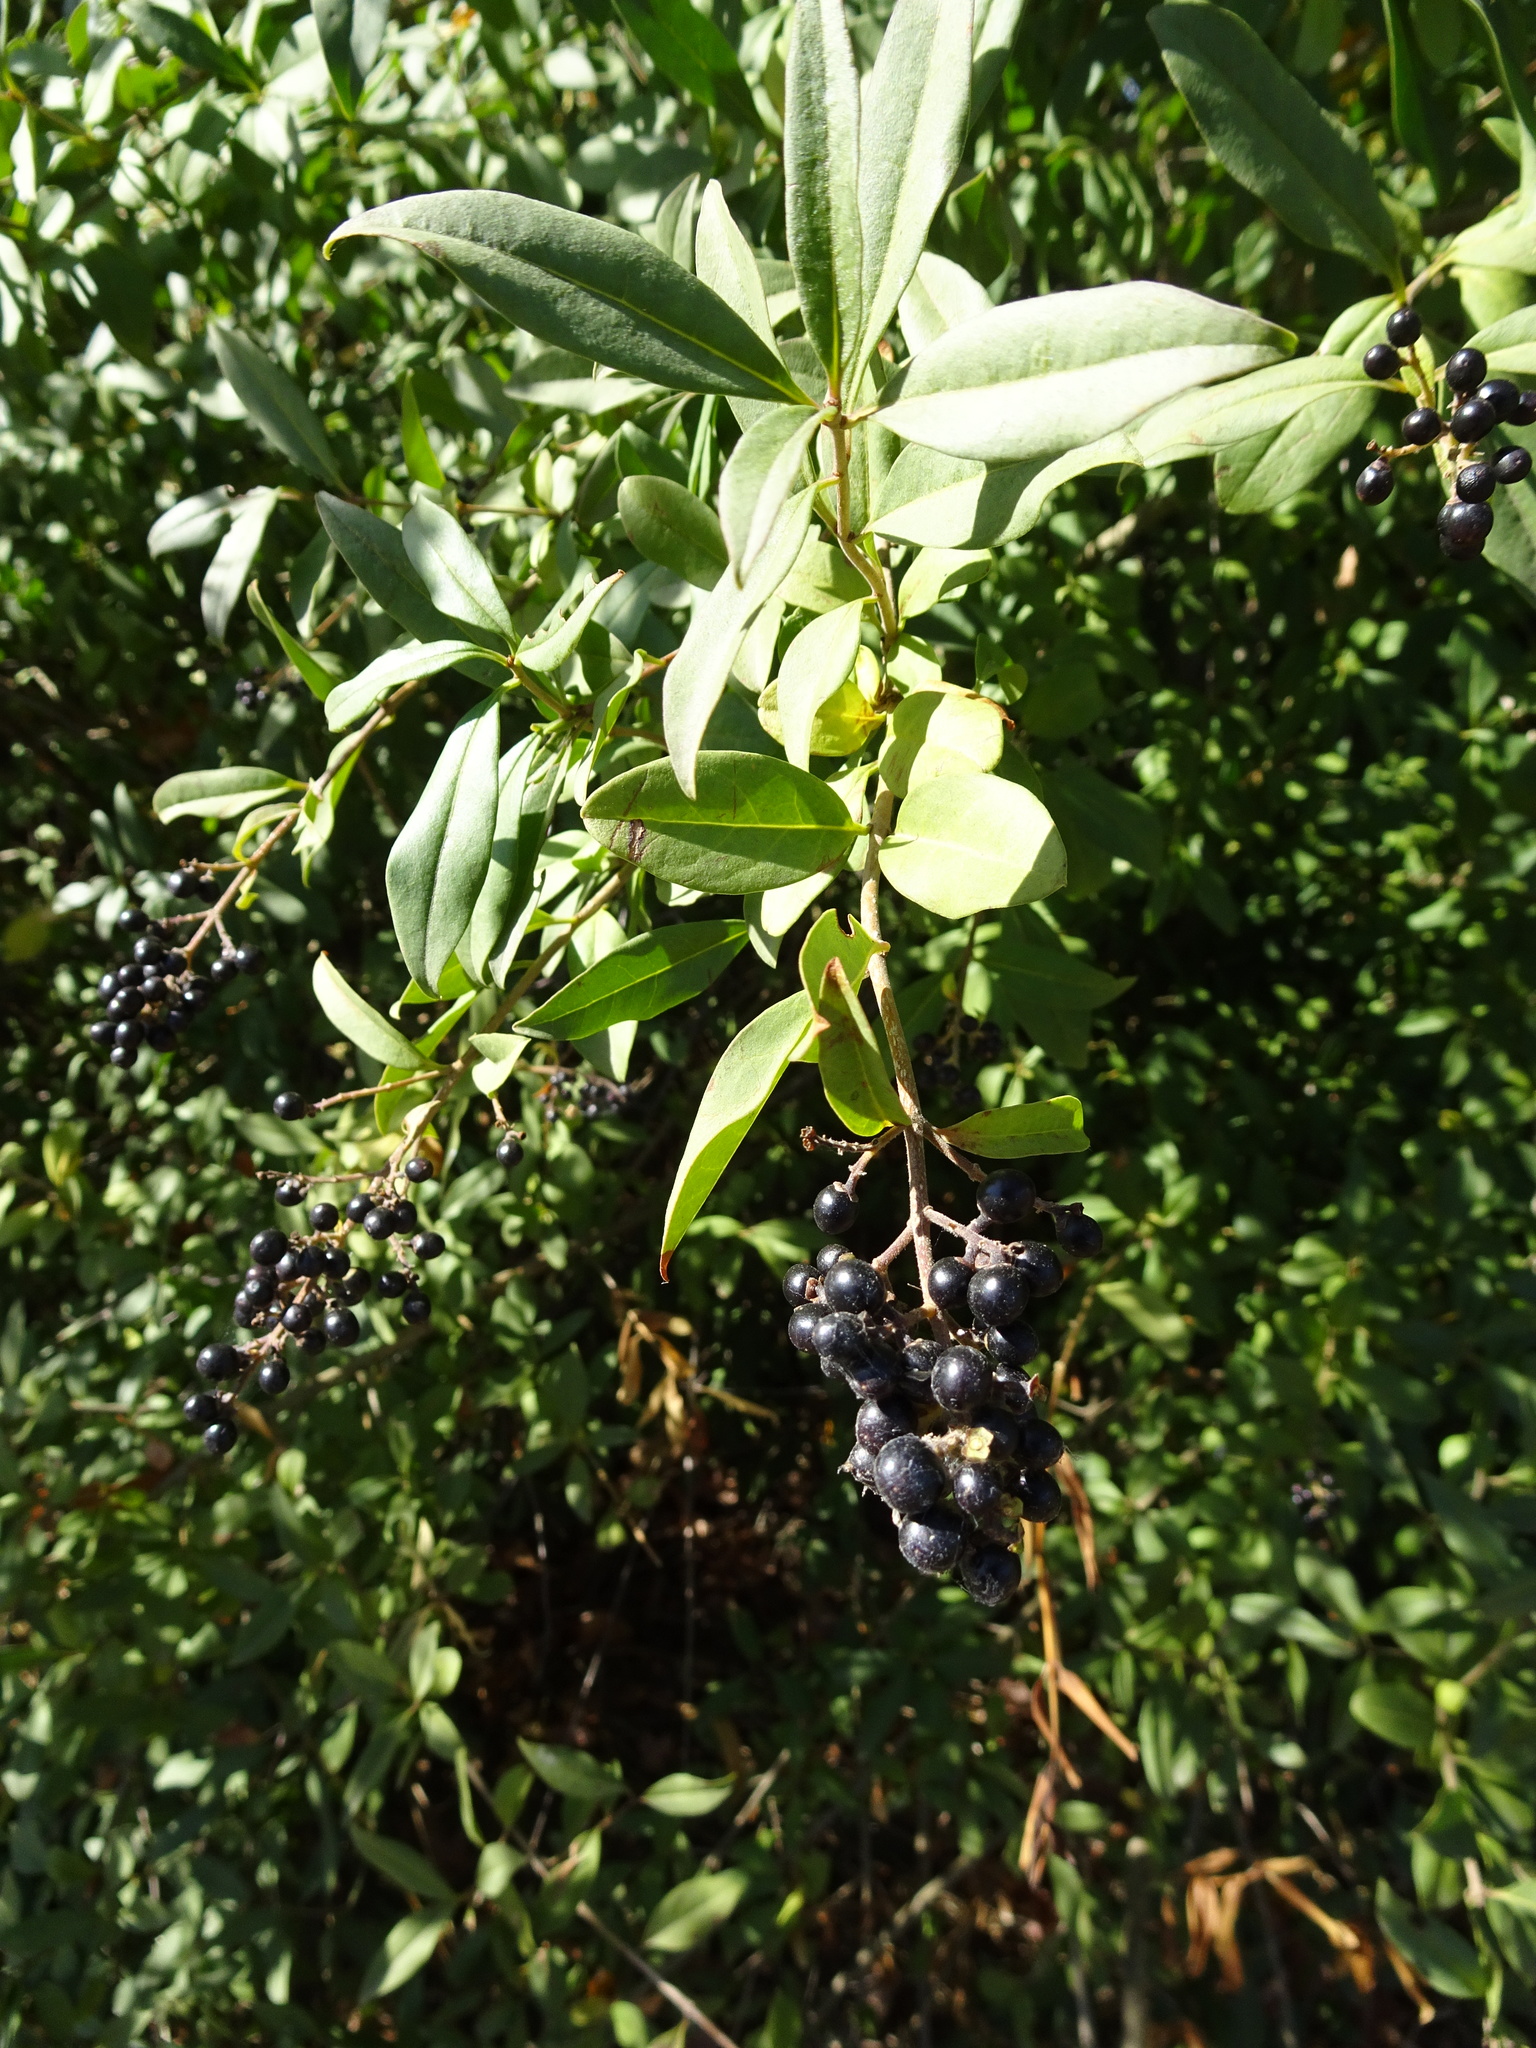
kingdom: Plantae
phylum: Tracheophyta
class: Magnoliopsida
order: Lamiales
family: Oleaceae
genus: Ligustrum
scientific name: Ligustrum vulgare
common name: Wild privet
